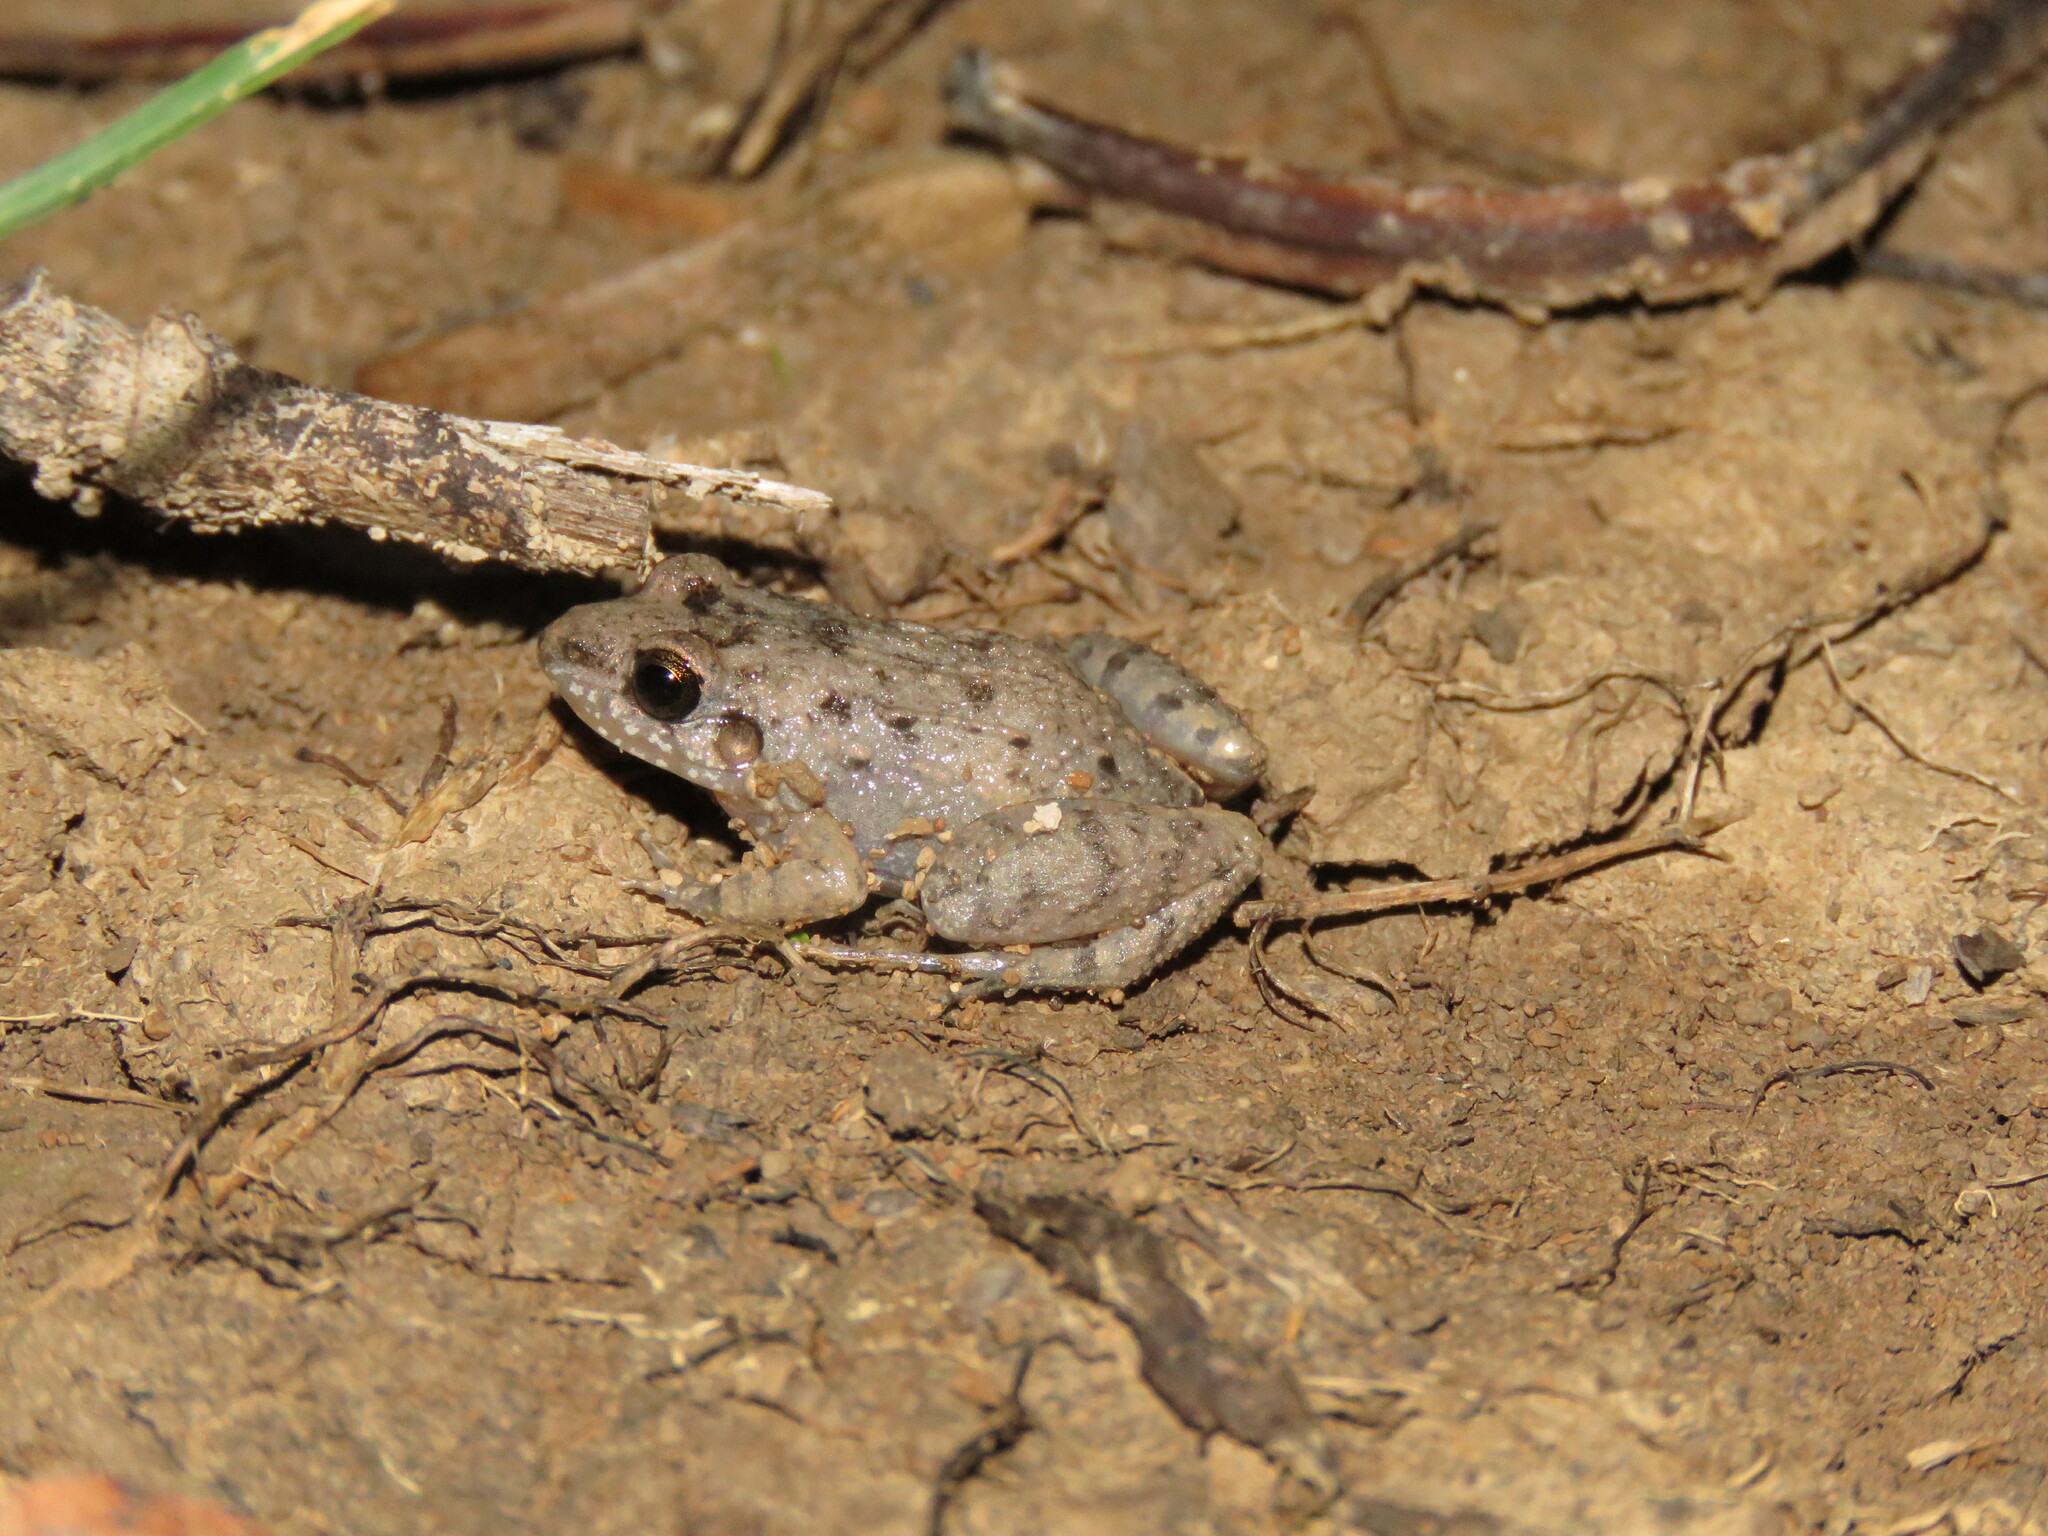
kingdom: Animalia
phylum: Chordata
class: Amphibia
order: Anura
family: Leptodactylidae
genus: Adenomera
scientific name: Adenomera hylaedactyla
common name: Napo tropical bullfrog
